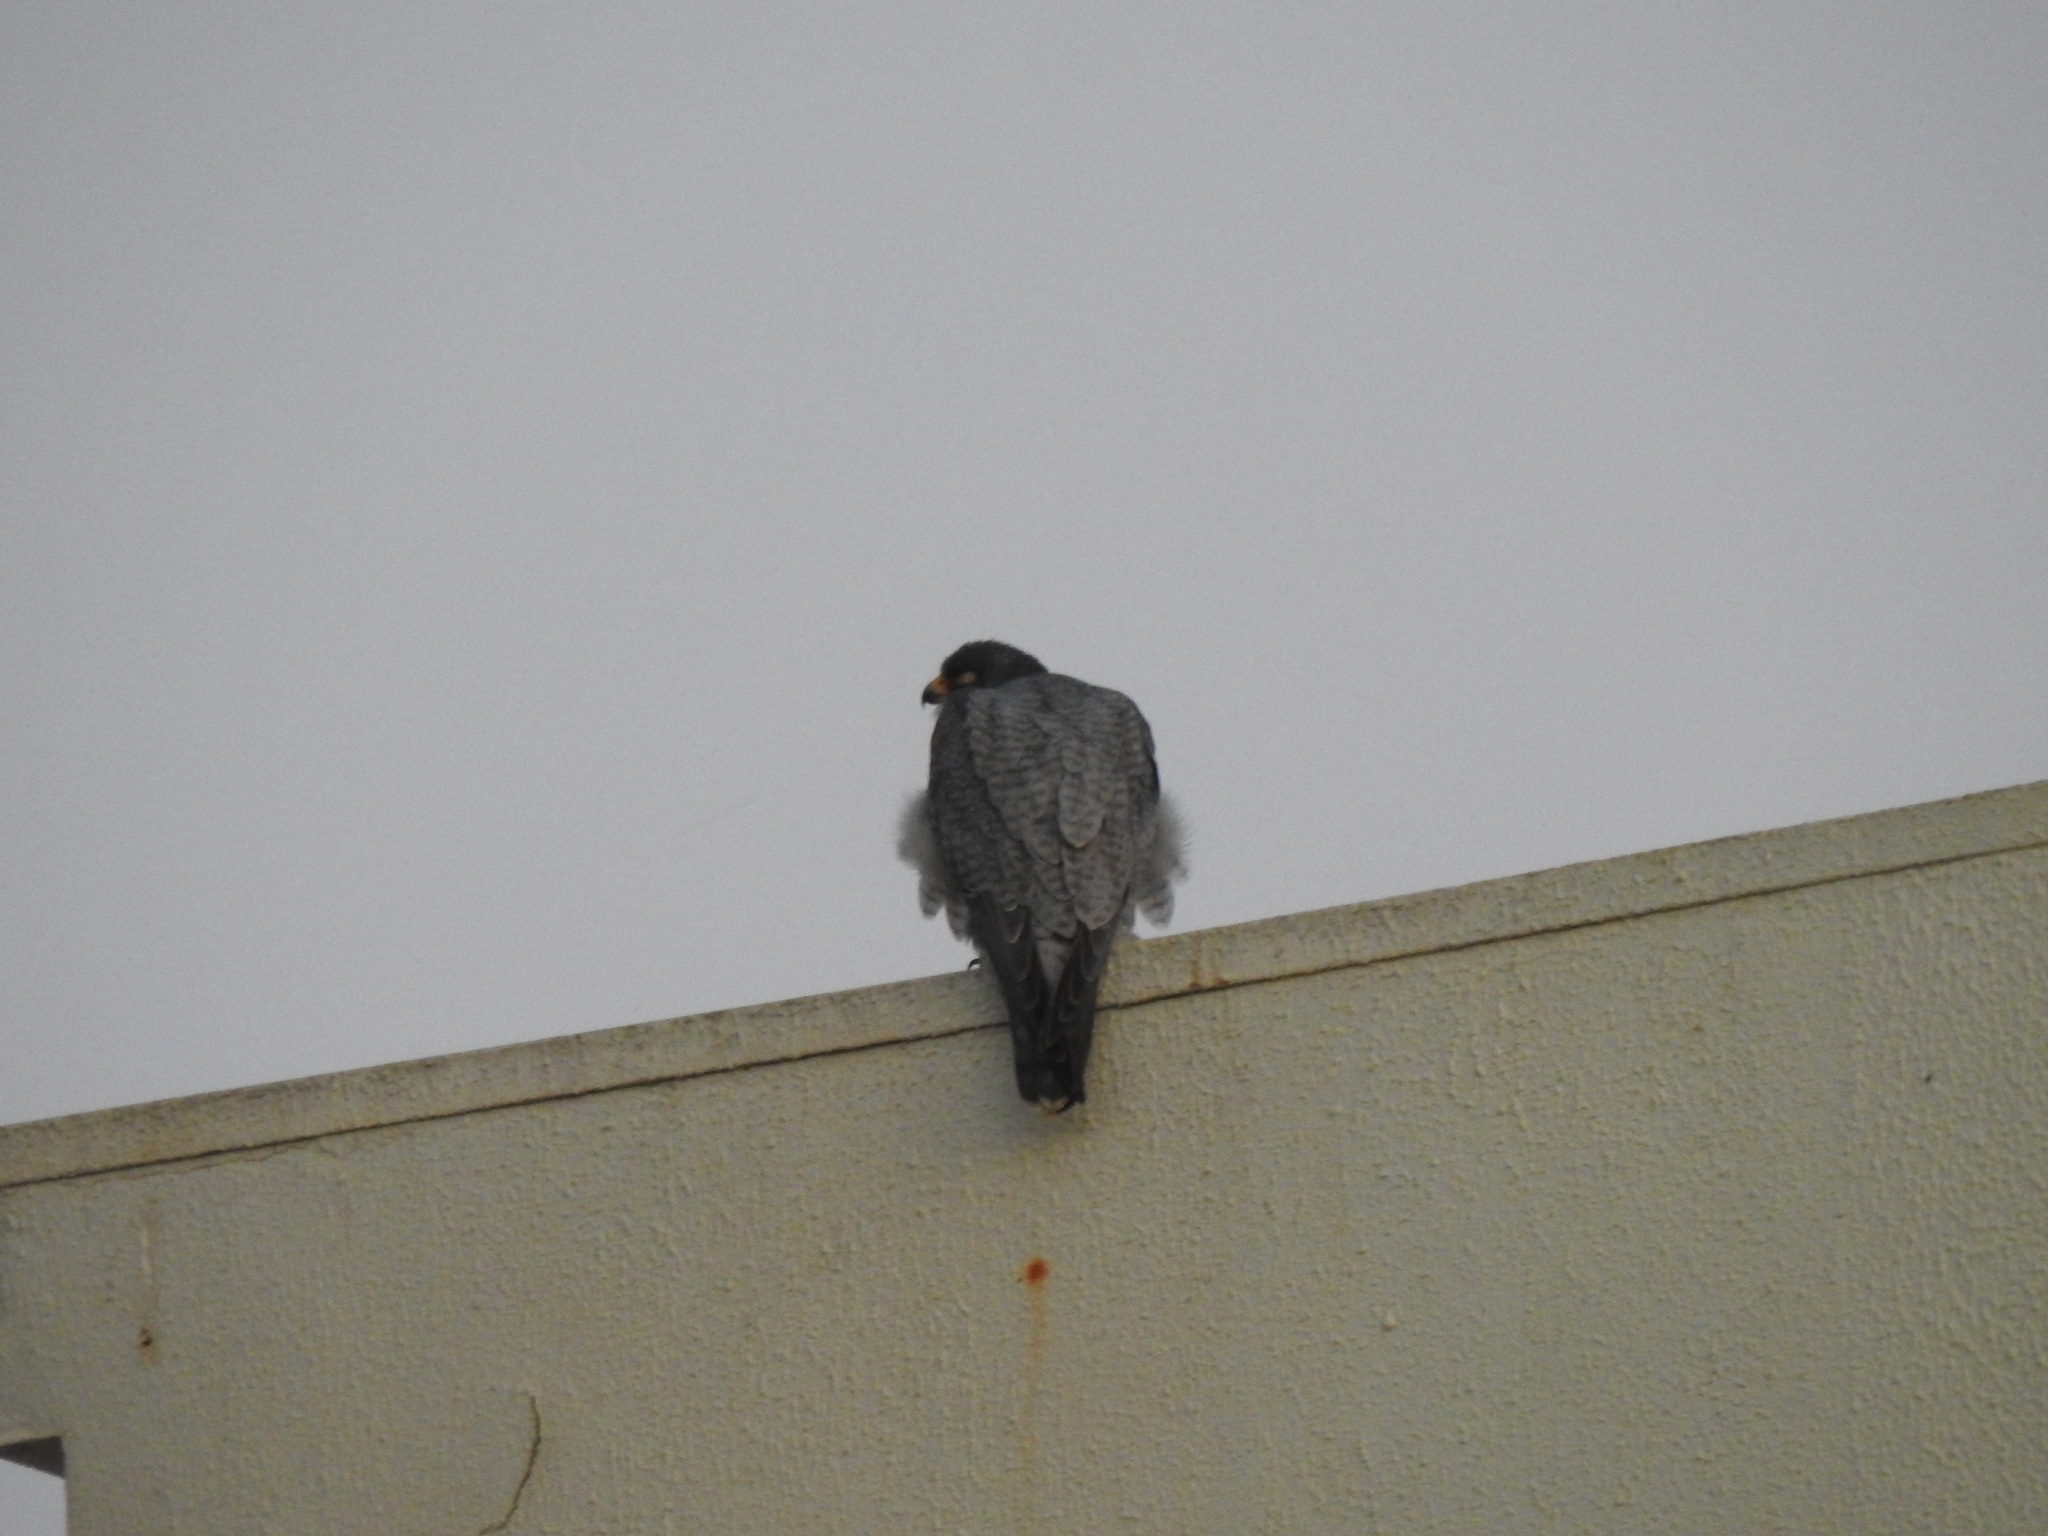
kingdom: Animalia
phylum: Chordata
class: Aves
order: Falconiformes
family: Falconidae
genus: Falco
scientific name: Falco peregrinus
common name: Peregrine falcon
